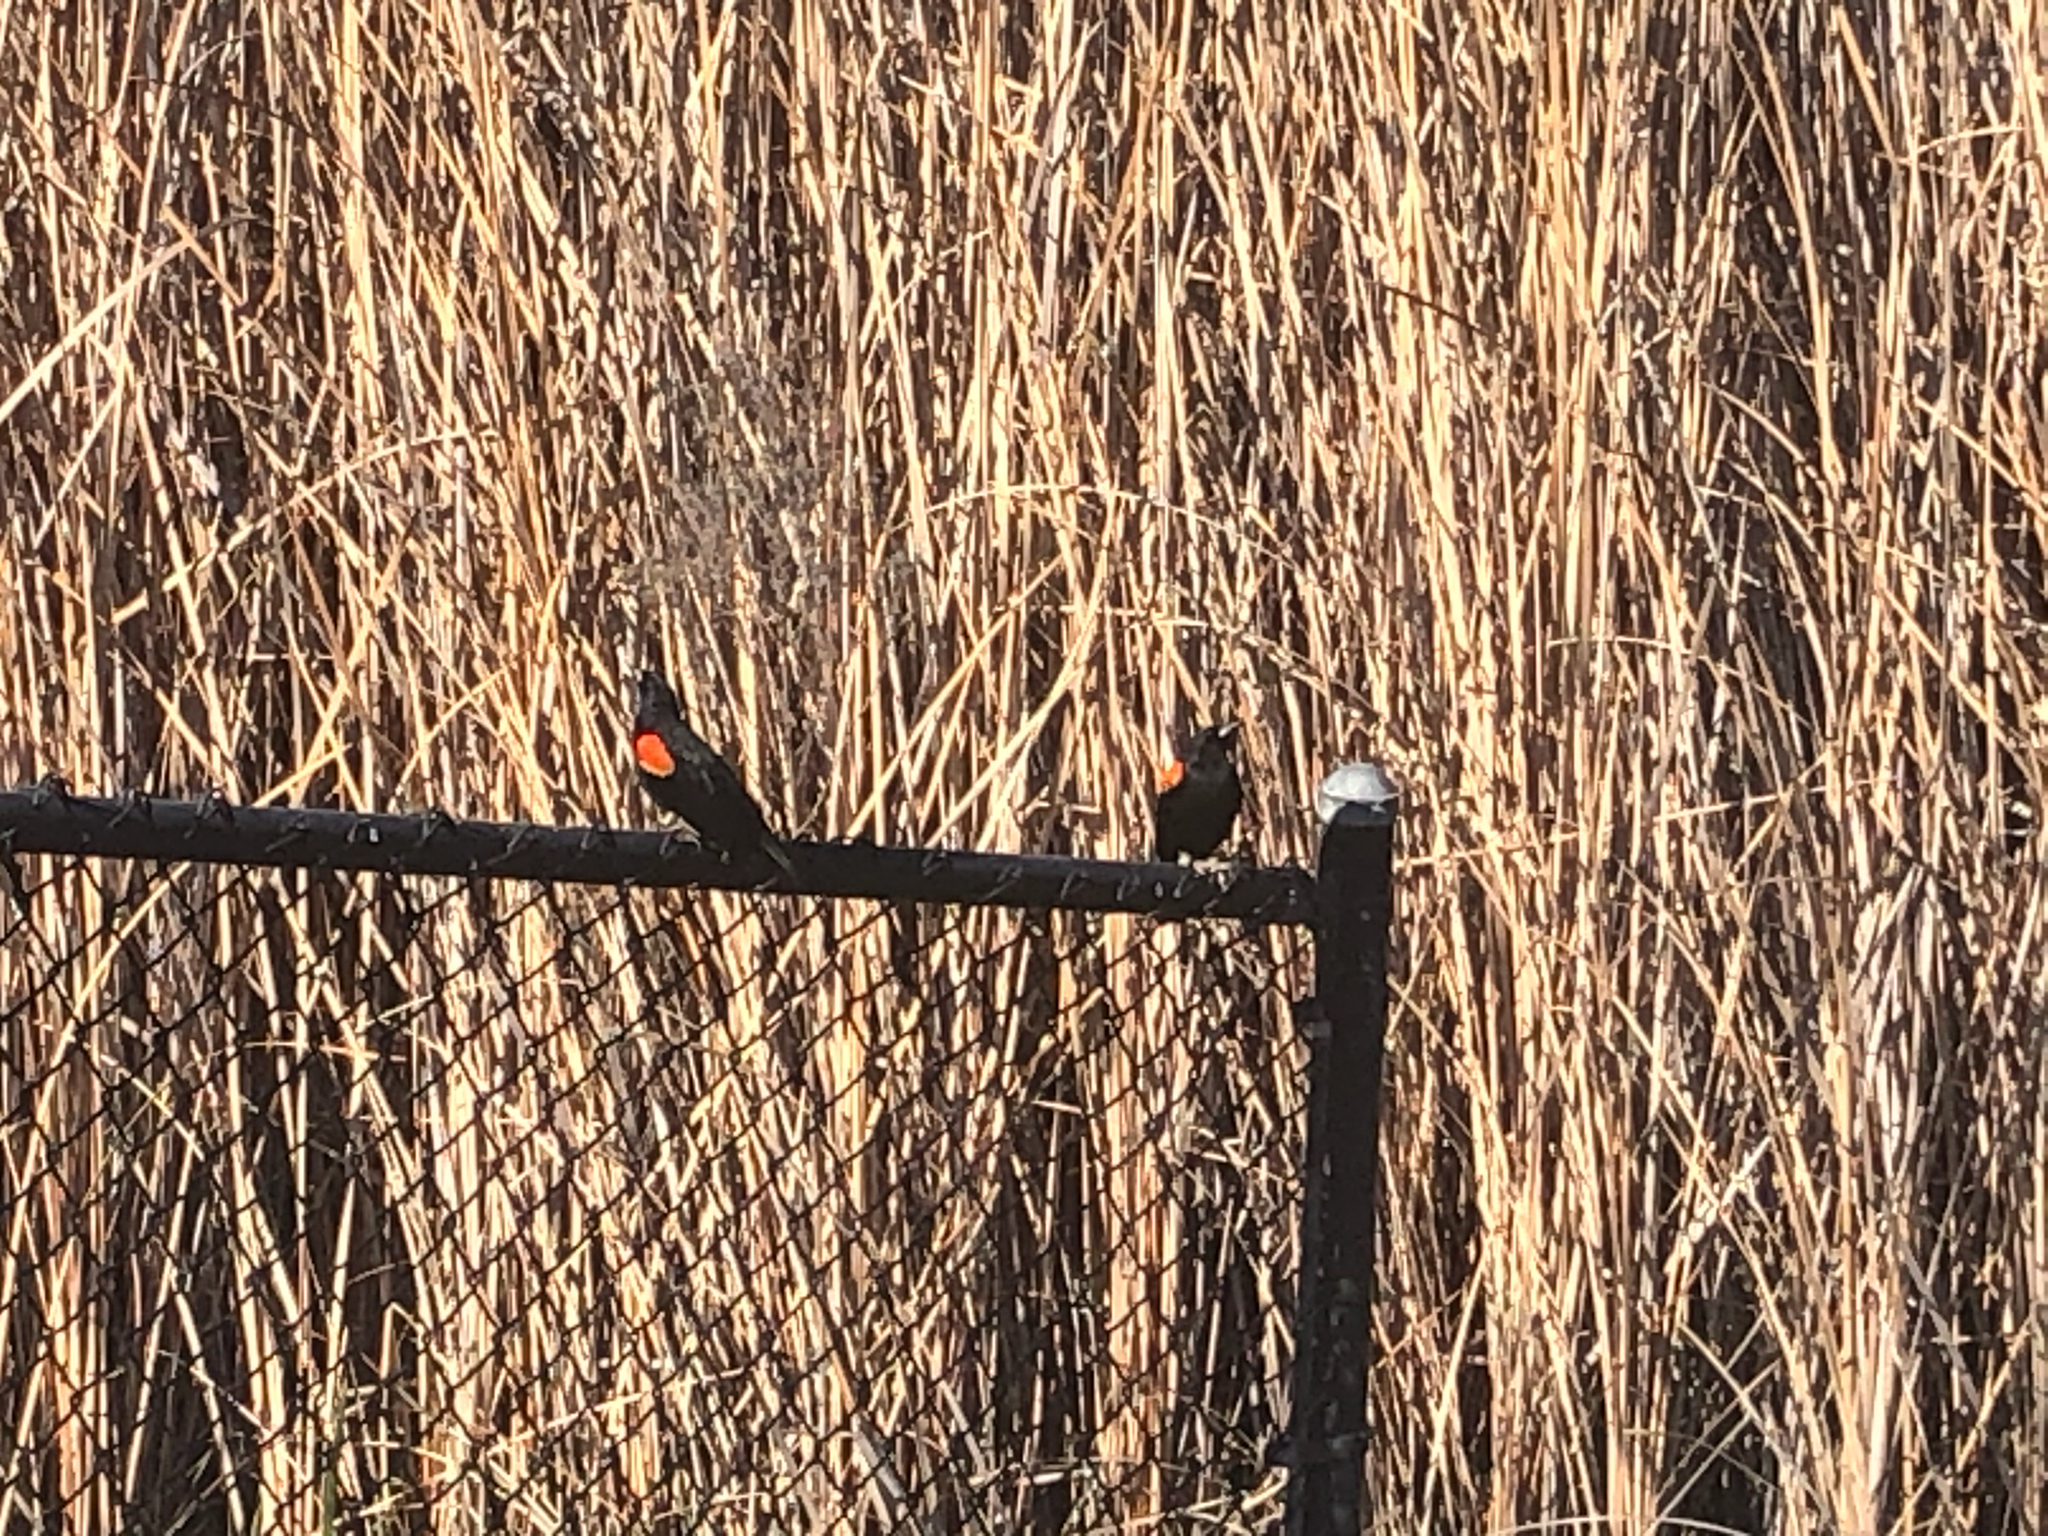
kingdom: Animalia
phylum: Chordata
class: Aves
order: Passeriformes
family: Icteridae
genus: Agelaius
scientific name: Agelaius phoeniceus
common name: Red-winged blackbird
